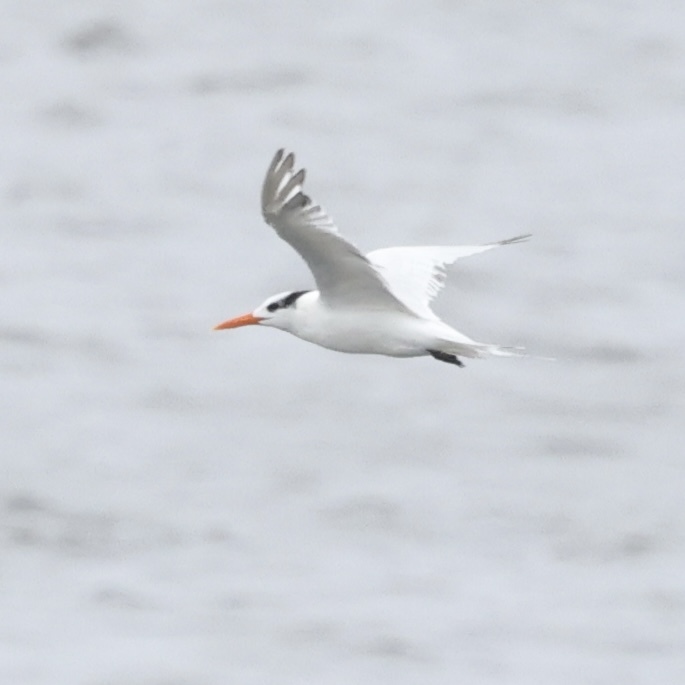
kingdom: Animalia
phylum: Chordata
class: Aves
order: Charadriiformes
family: Laridae
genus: Thalasseus
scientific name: Thalasseus maximus
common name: Royal tern
